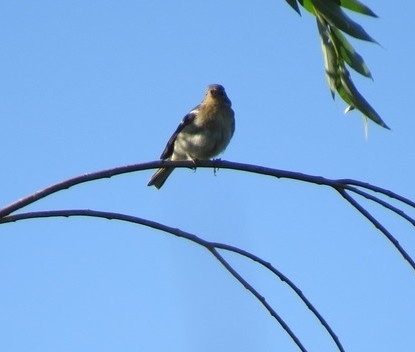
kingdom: Animalia
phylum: Chordata
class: Aves
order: Passeriformes
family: Fringillidae
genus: Fringilla
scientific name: Fringilla coelebs
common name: Common chaffinch
